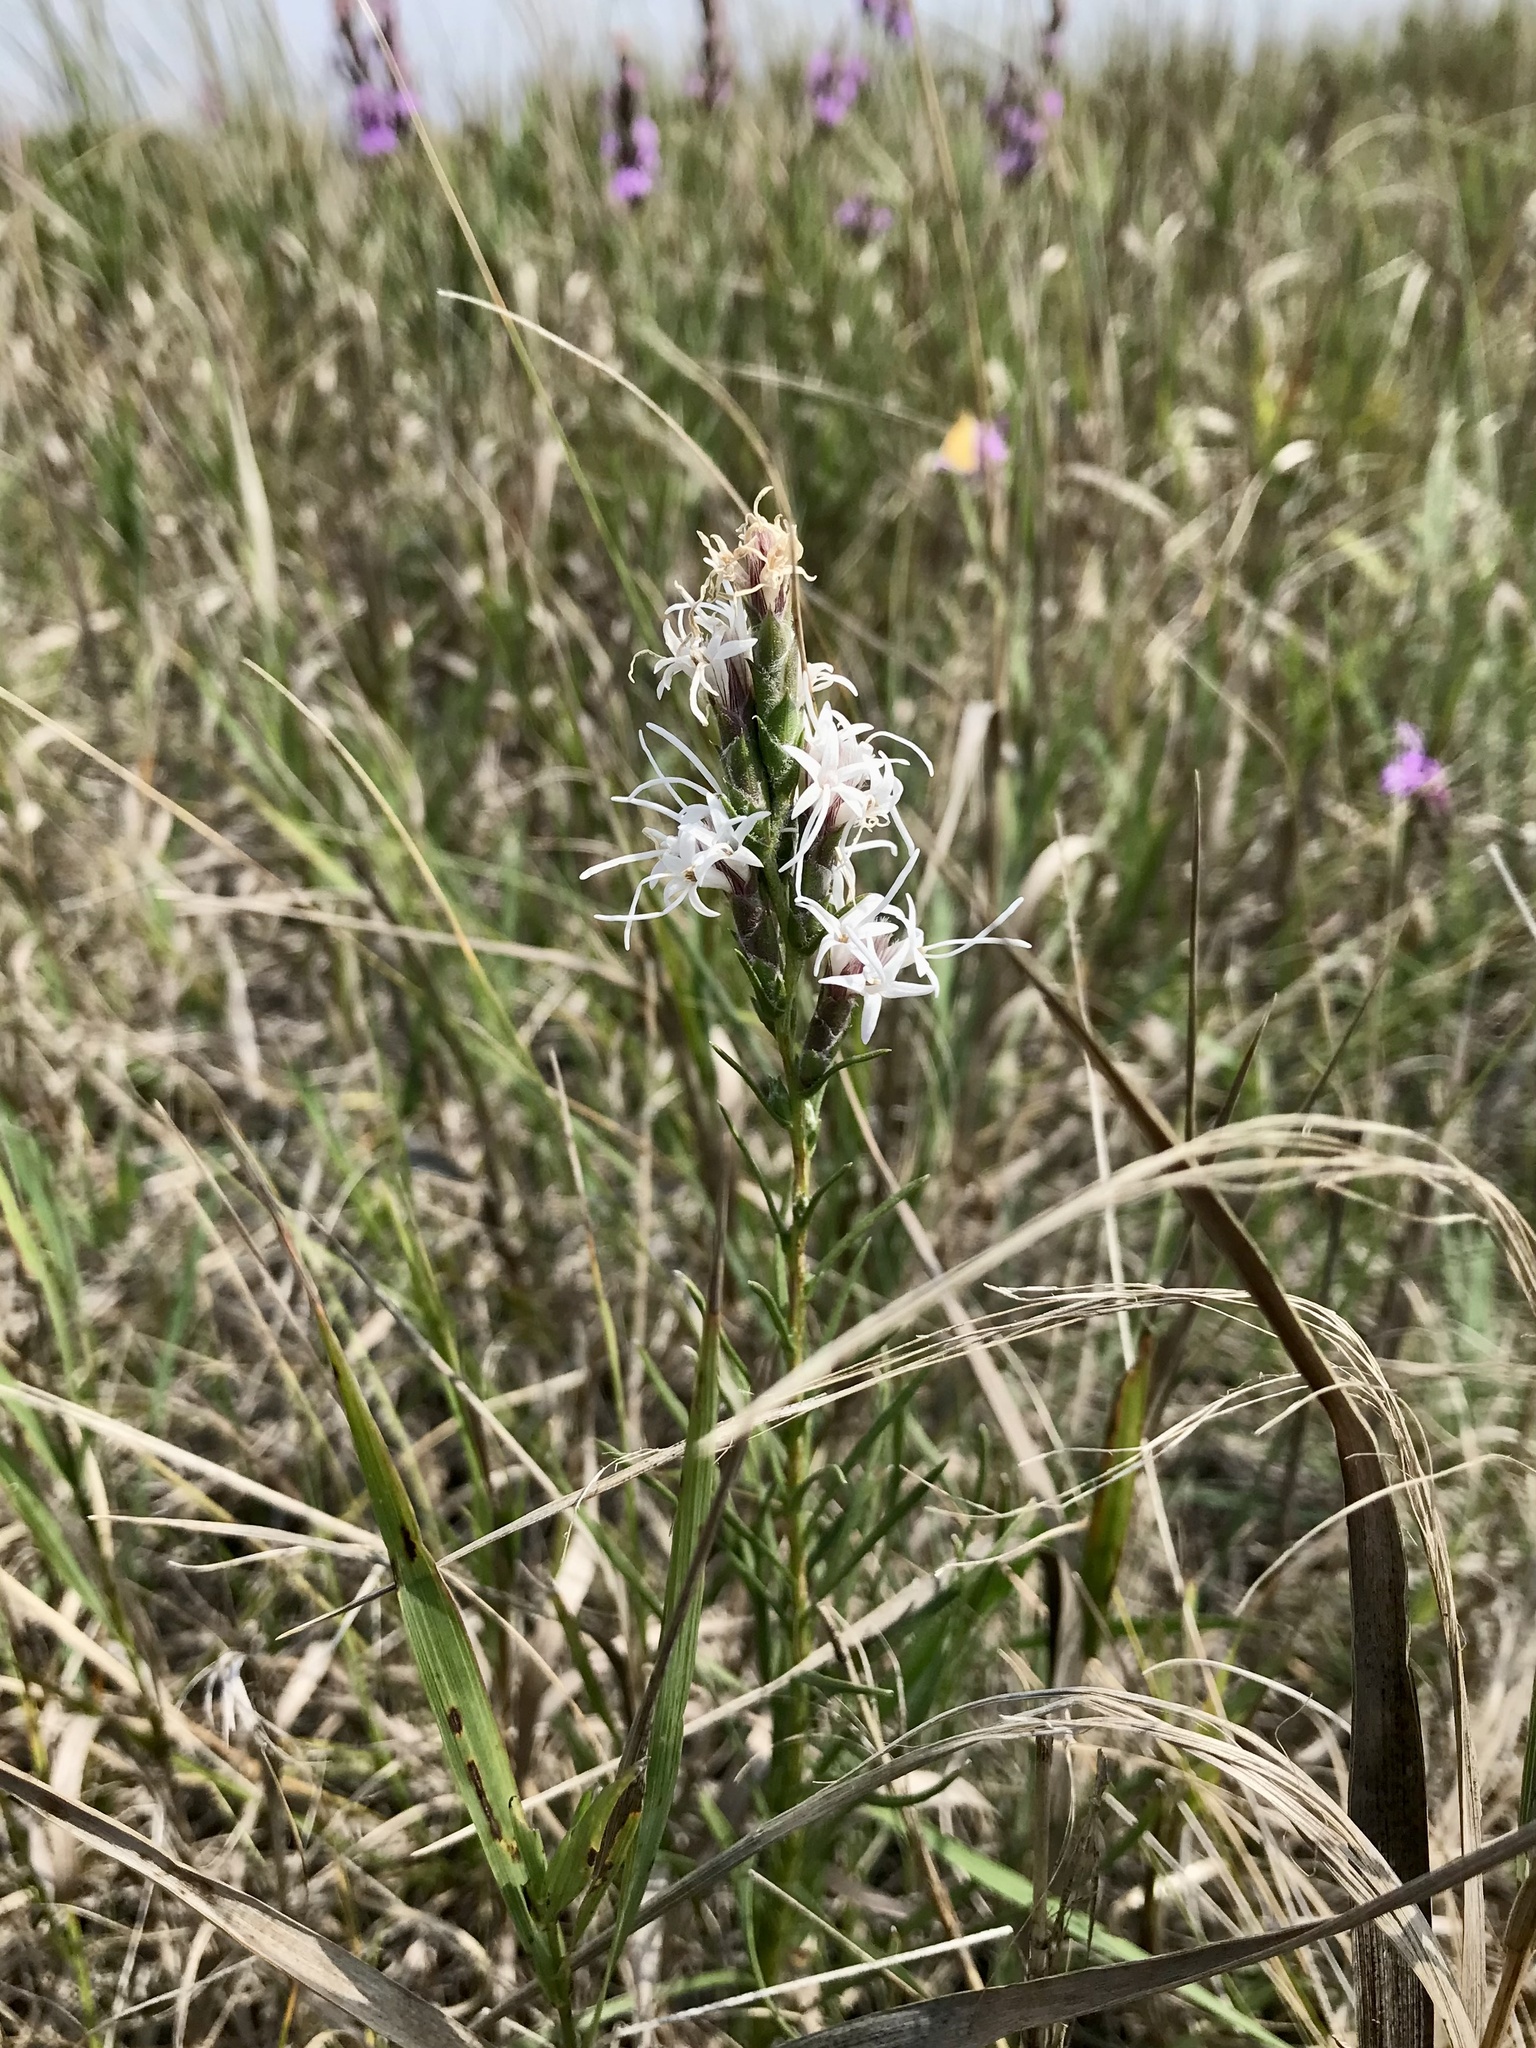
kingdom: Plantae
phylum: Tracheophyta
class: Magnoliopsida
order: Asterales
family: Asteraceae
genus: Liatris
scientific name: Liatris punctata
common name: Dotted gayfeather
